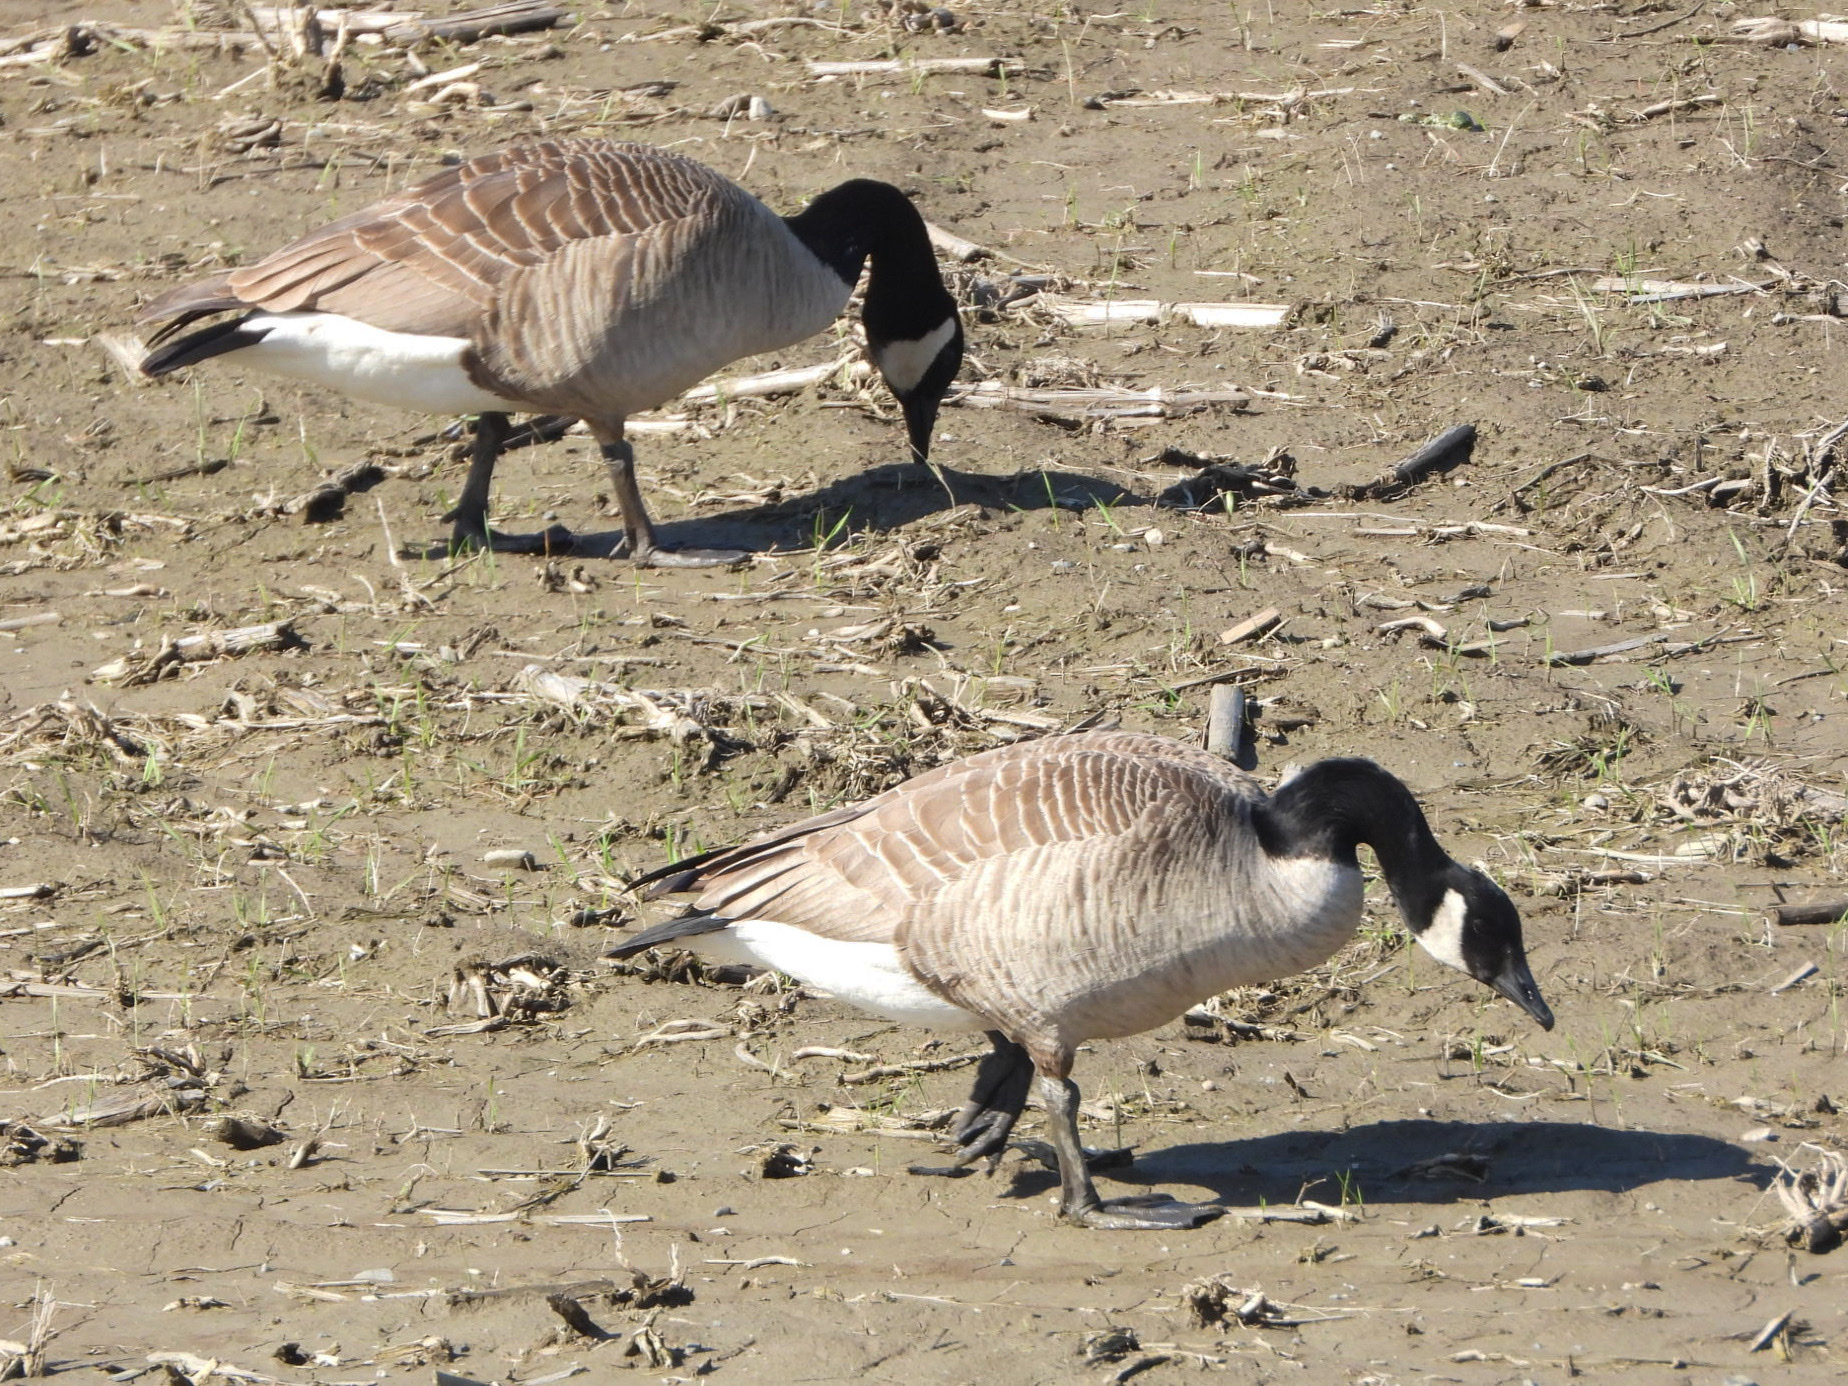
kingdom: Animalia
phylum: Chordata
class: Aves
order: Anseriformes
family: Anatidae
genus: Branta
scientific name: Branta canadensis
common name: Canada goose
